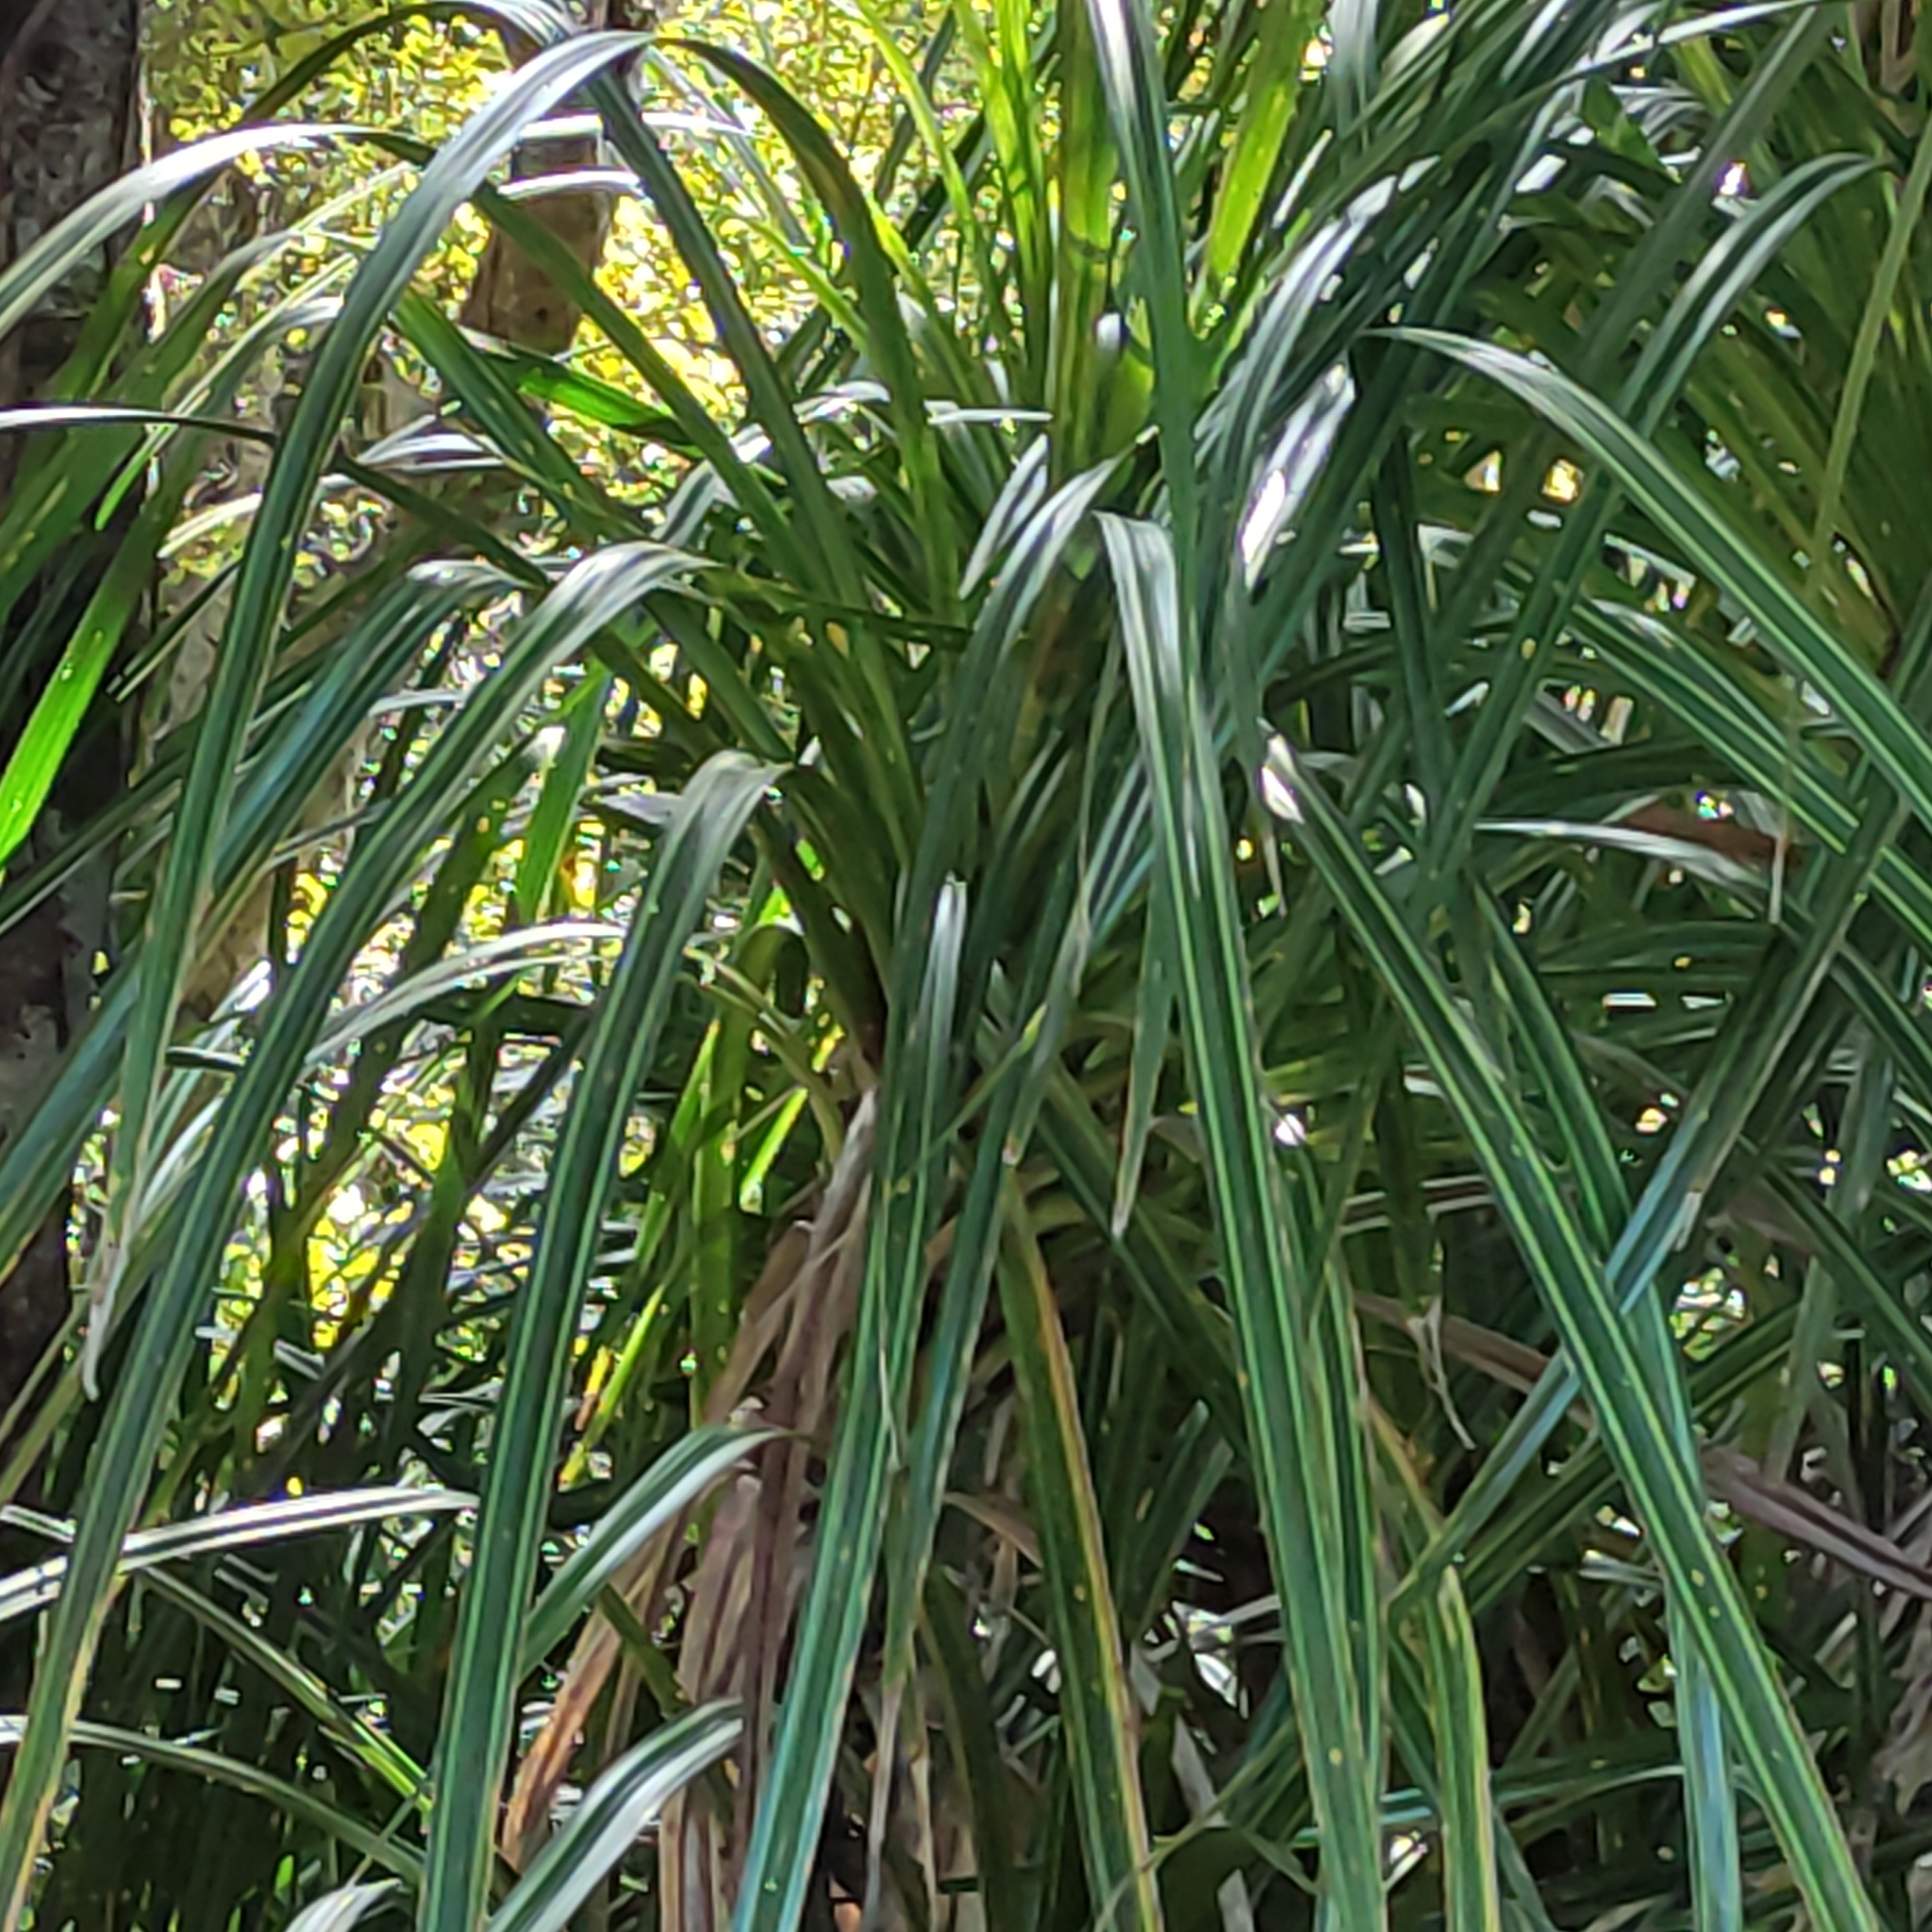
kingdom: Plantae
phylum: Tracheophyta
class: Liliopsida
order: Pandanales
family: Pandanaceae
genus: Freycinetia
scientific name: Freycinetia banksii
